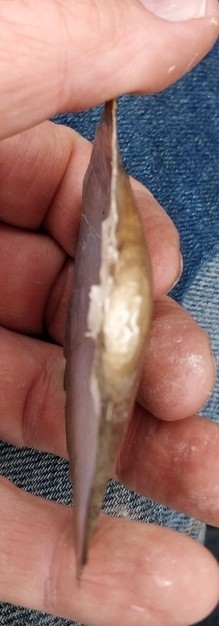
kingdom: Animalia
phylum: Mollusca
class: Bivalvia
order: Unionida
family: Unionidae
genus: Lasmigona
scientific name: Lasmigona complanata
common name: White heelsplitter
